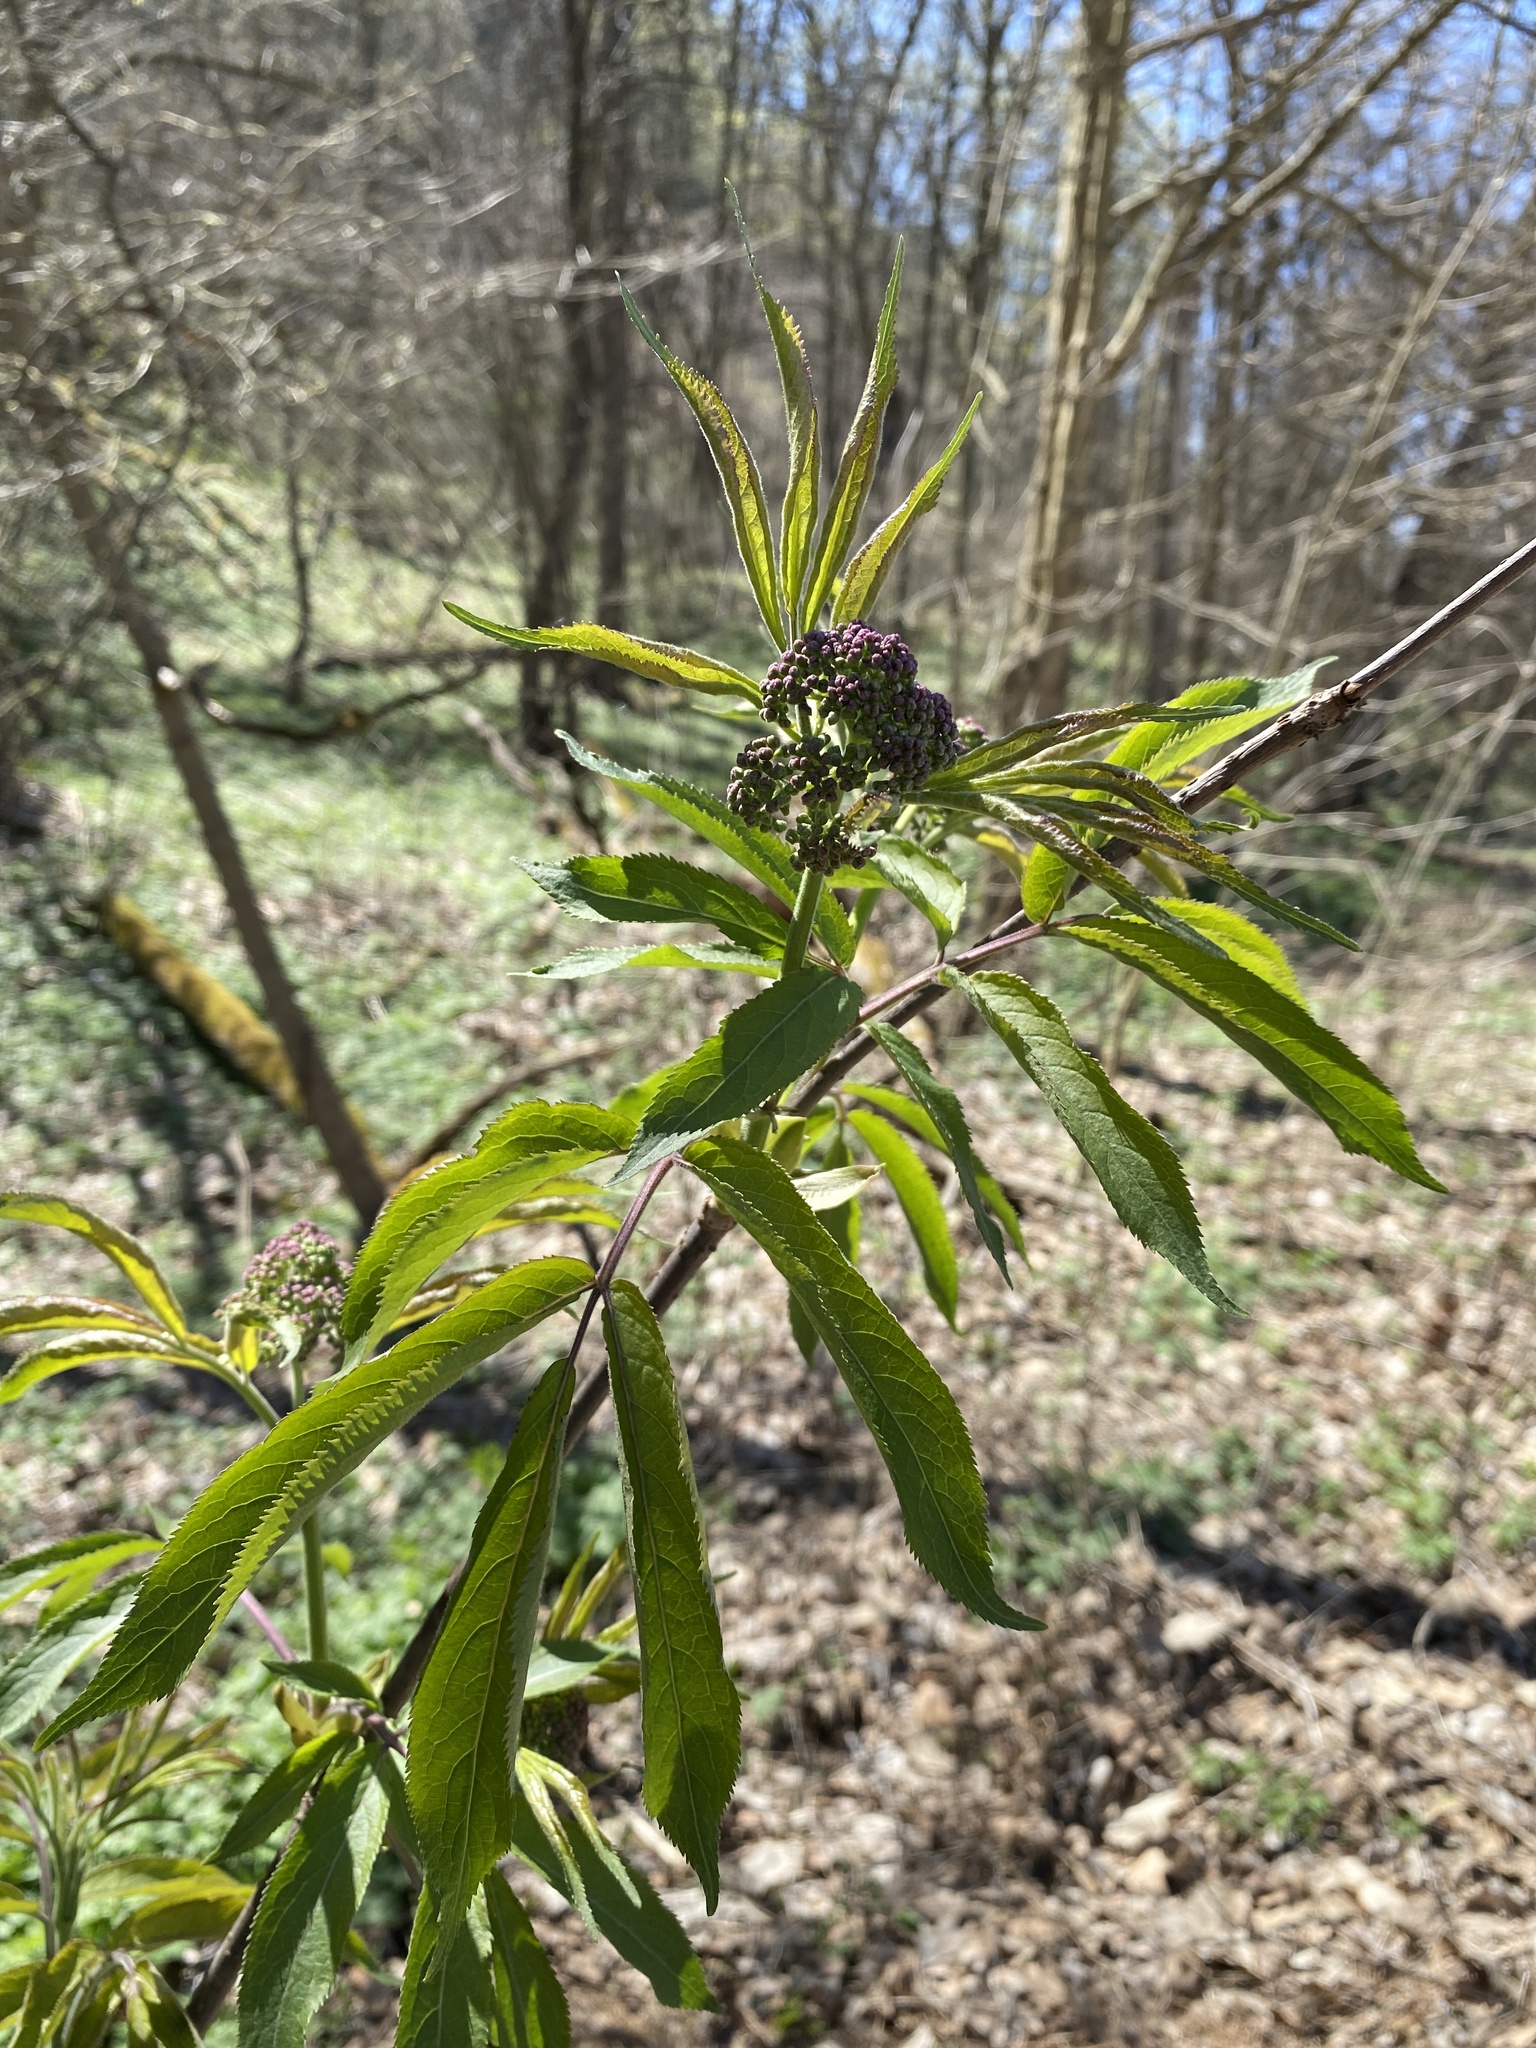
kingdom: Plantae
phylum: Tracheophyta
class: Magnoliopsida
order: Dipsacales
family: Viburnaceae
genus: Sambucus
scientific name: Sambucus racemosa
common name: Red-berried elder
